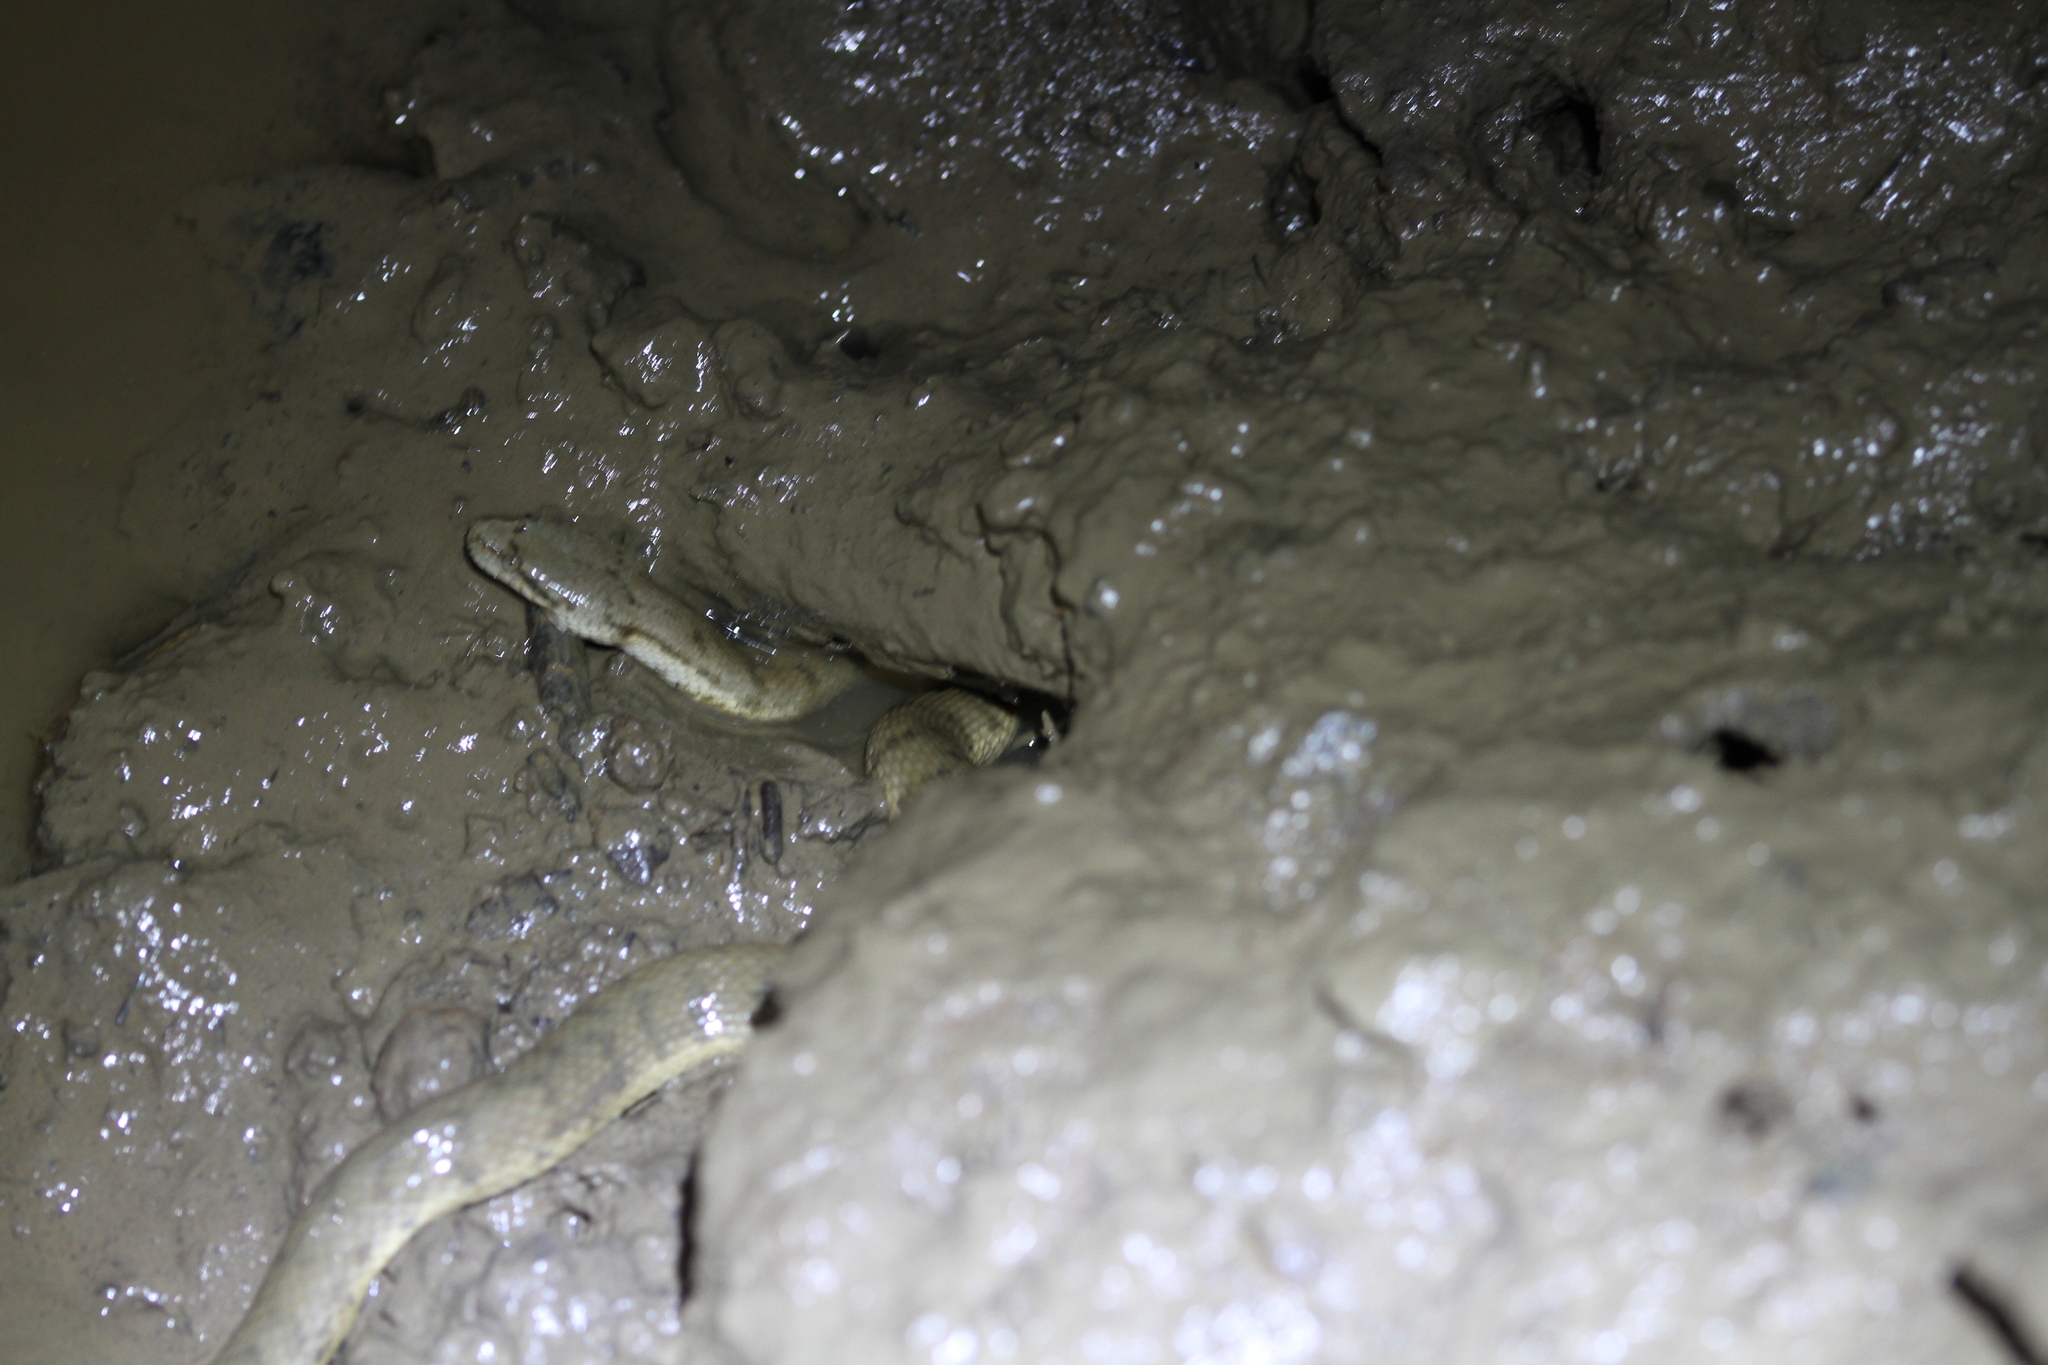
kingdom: Animalia
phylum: Chordata
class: Squamata
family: Homalopsidae
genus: Cerberus
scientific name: Cerberus schneiderii
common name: Southeast asian bockadam
